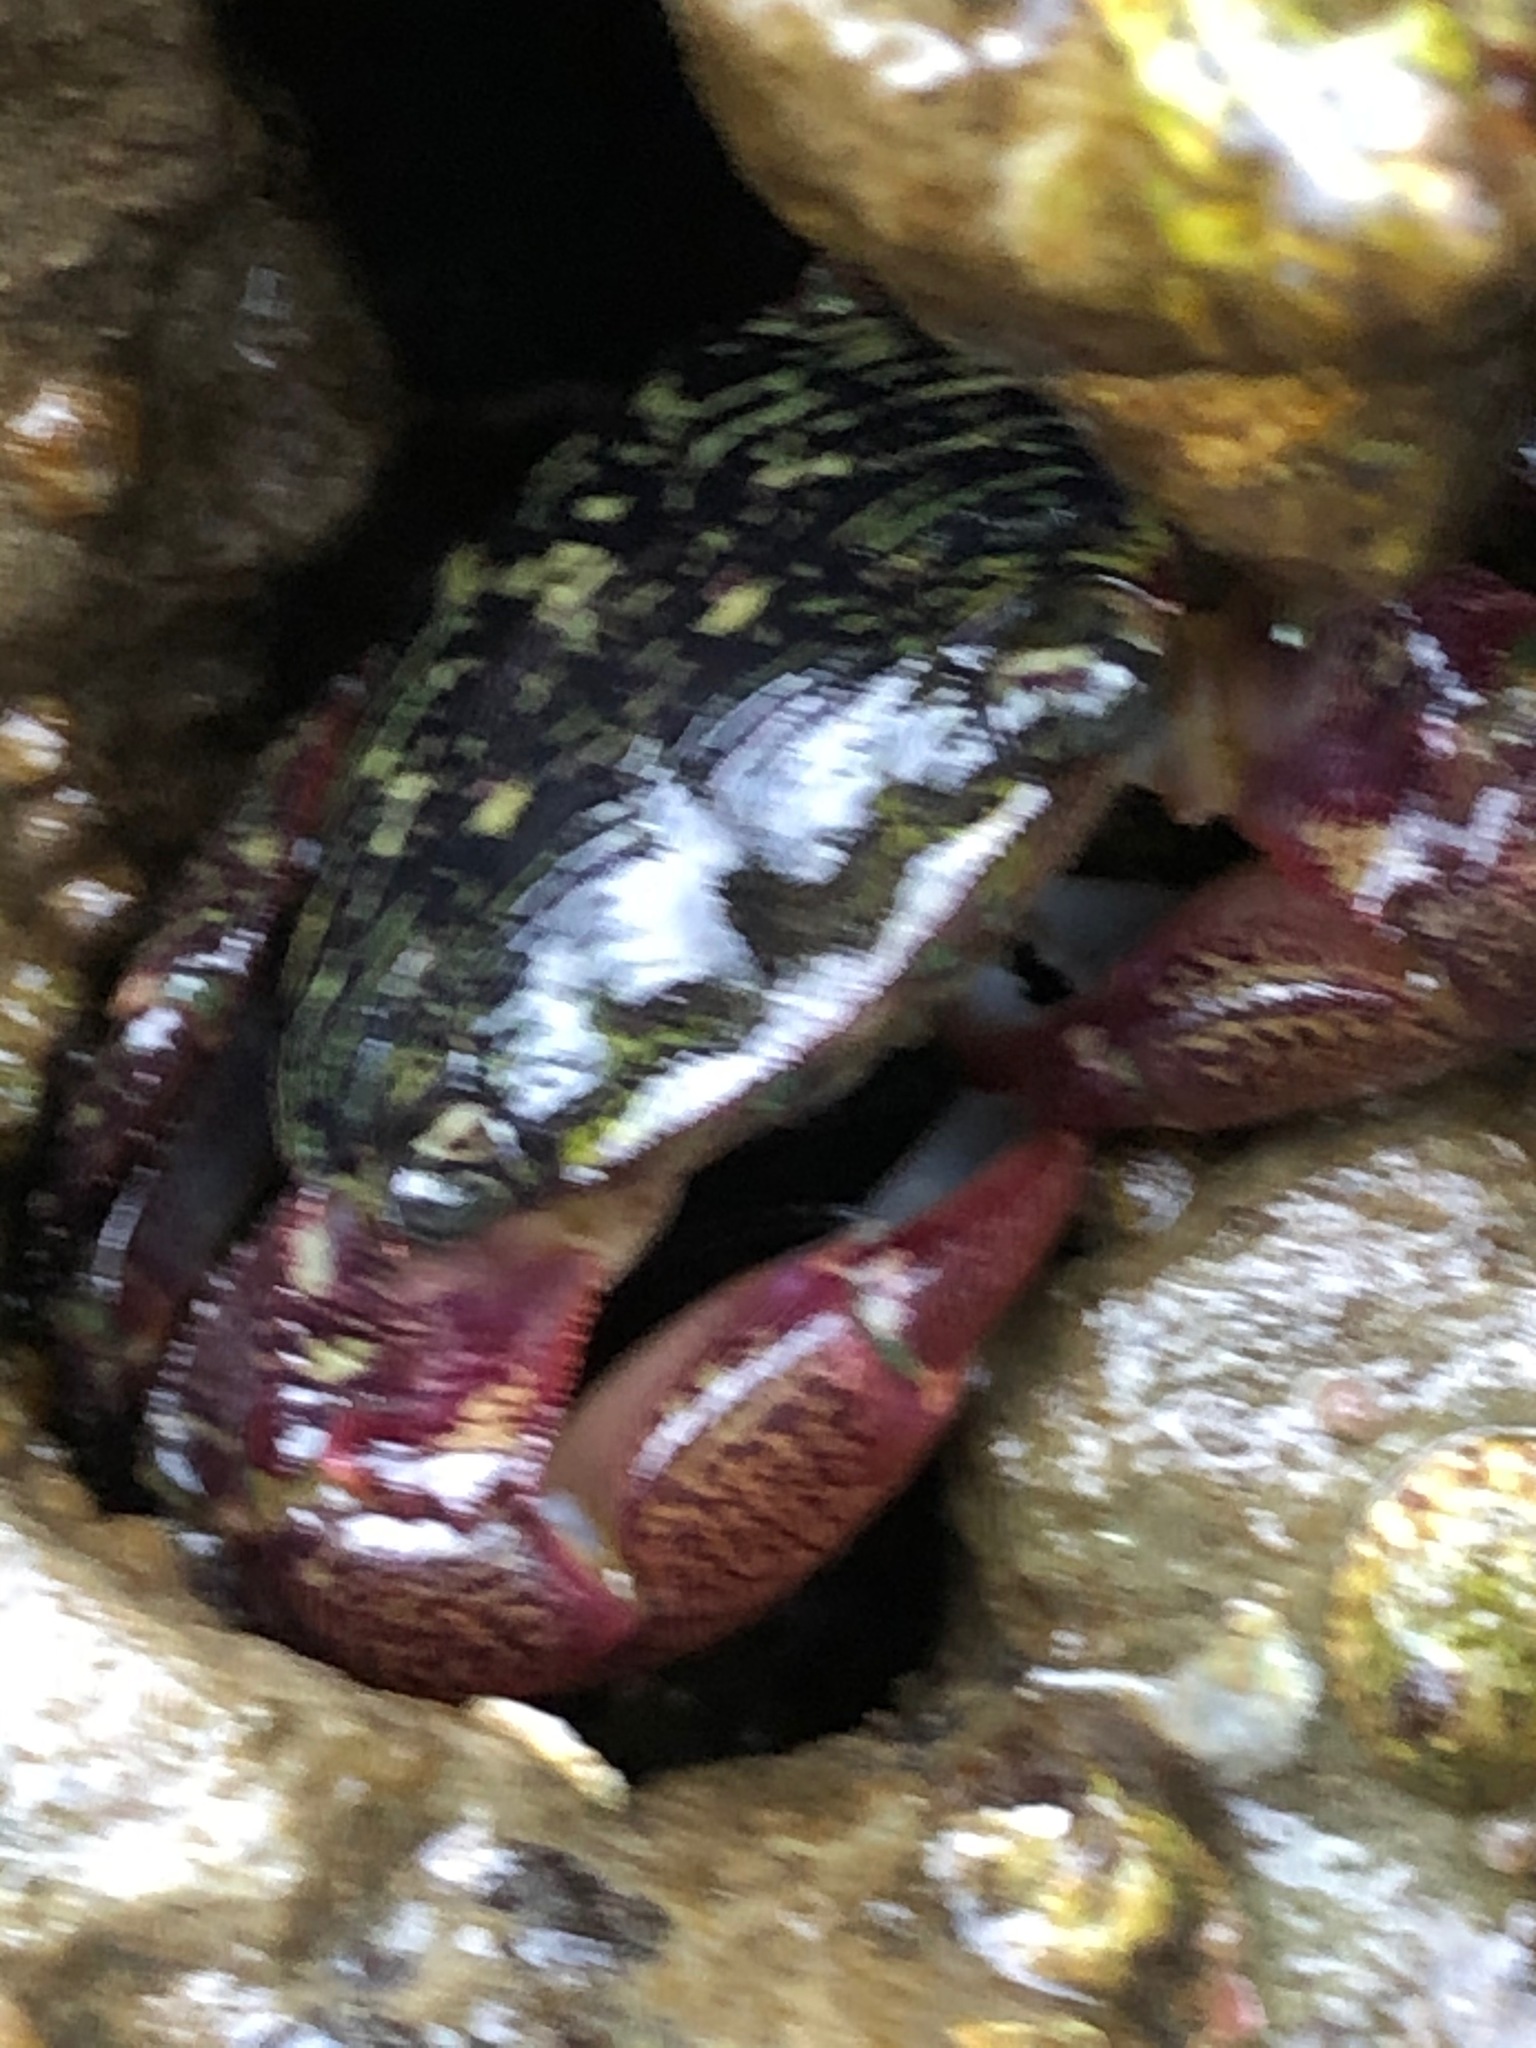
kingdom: Animalia
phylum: Arthropoda
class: Malacostraca
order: Decapoda
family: Grapsidae
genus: Pachygrapsus
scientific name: Pachygrapsus crassipes
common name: Striped shore crab
